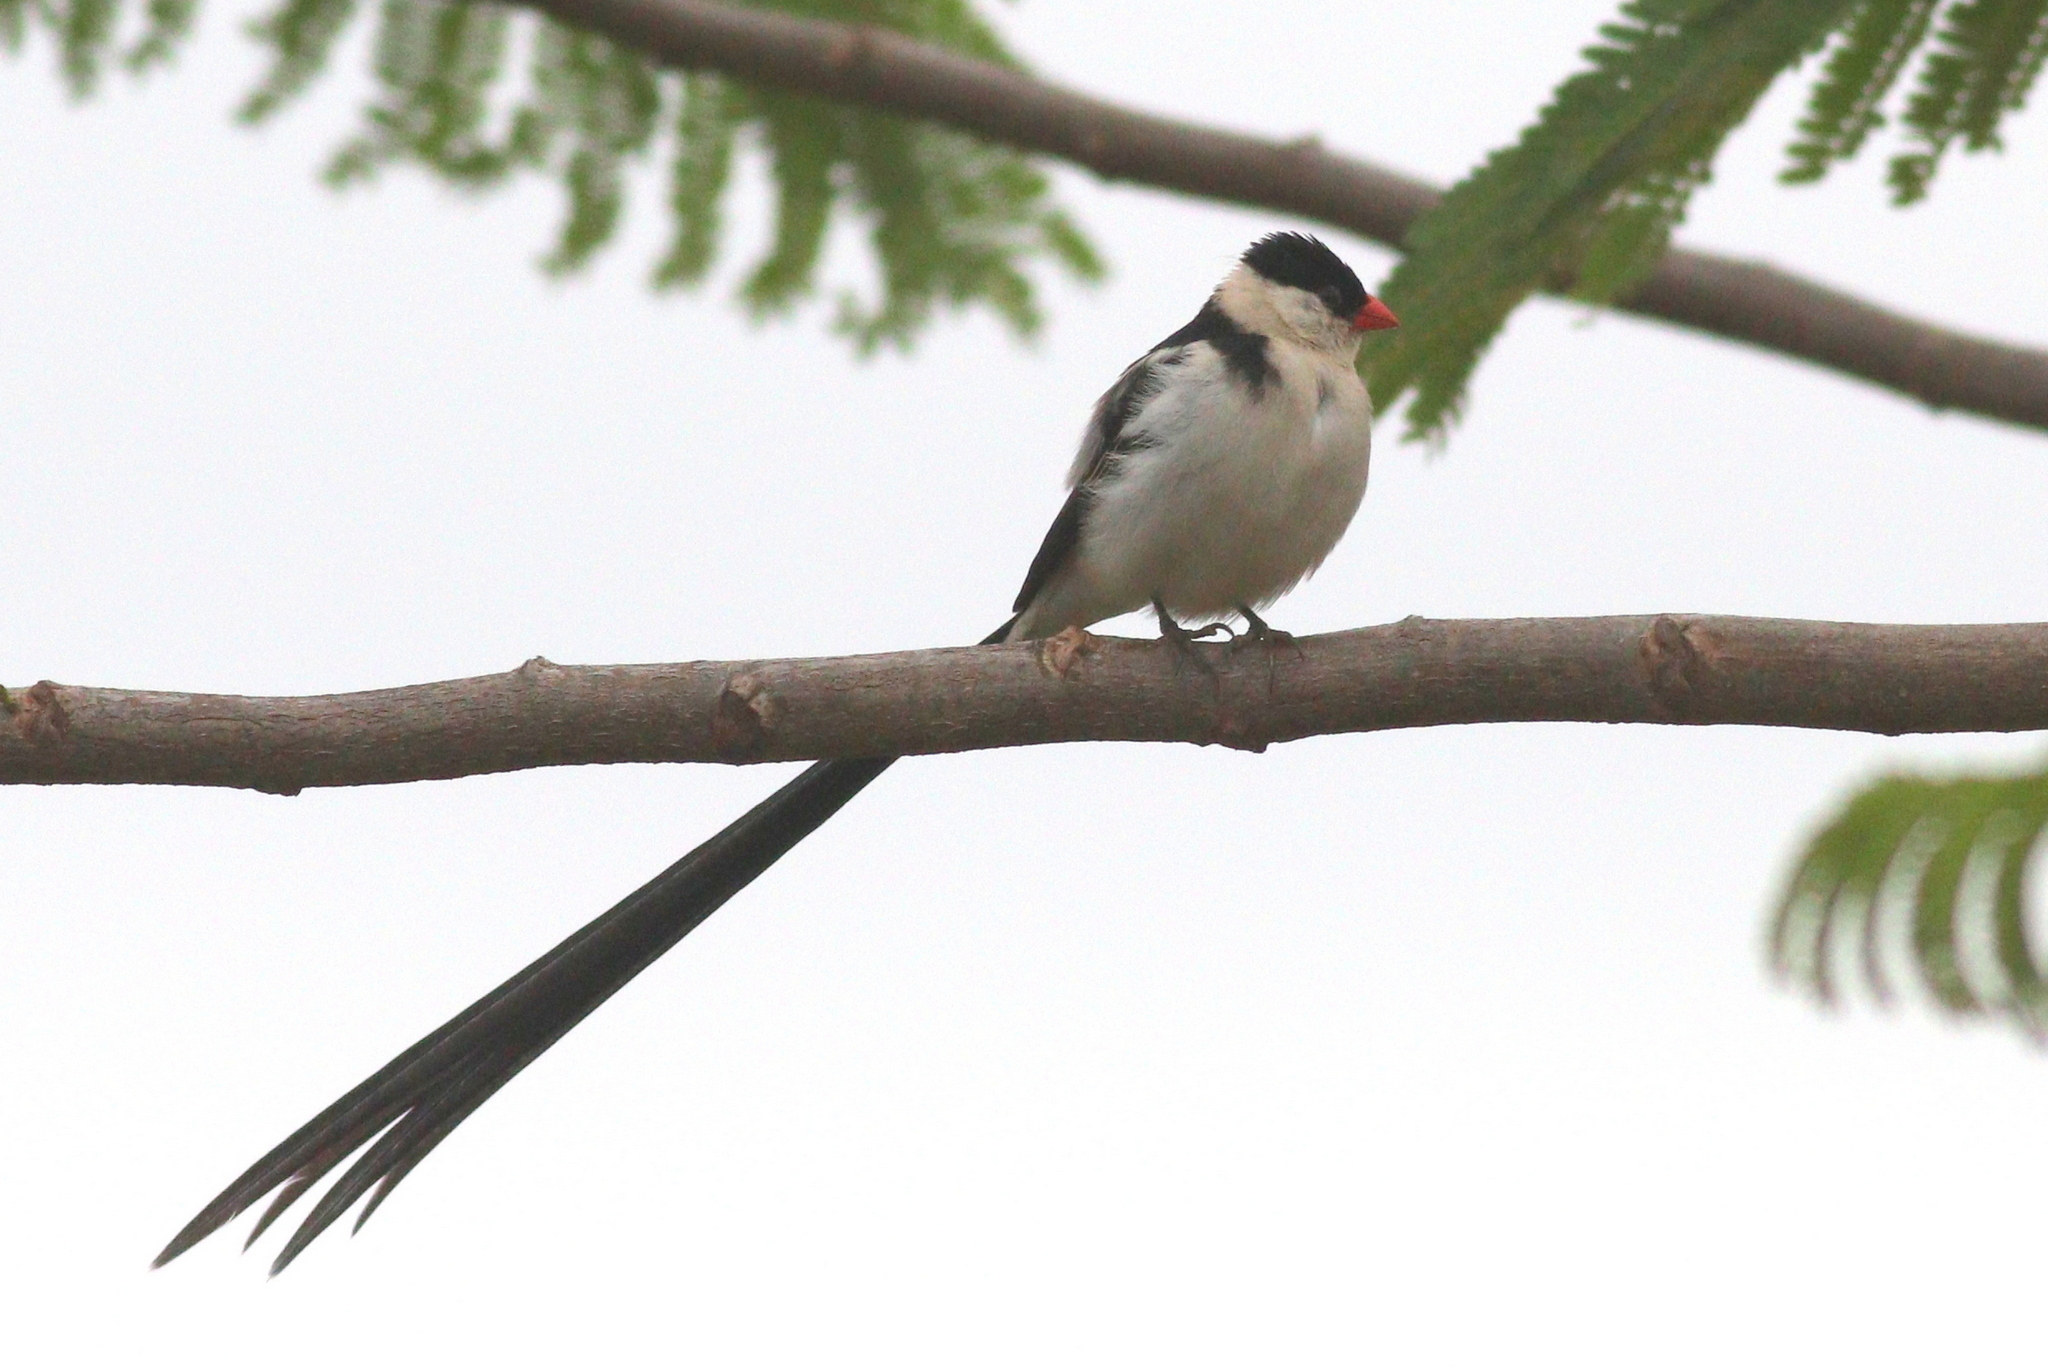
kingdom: Animalia
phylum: Chordata
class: Aves
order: Passeriformes
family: Viduidae
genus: Vidua
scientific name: Vidua macroura
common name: Pin-tailed whydah
